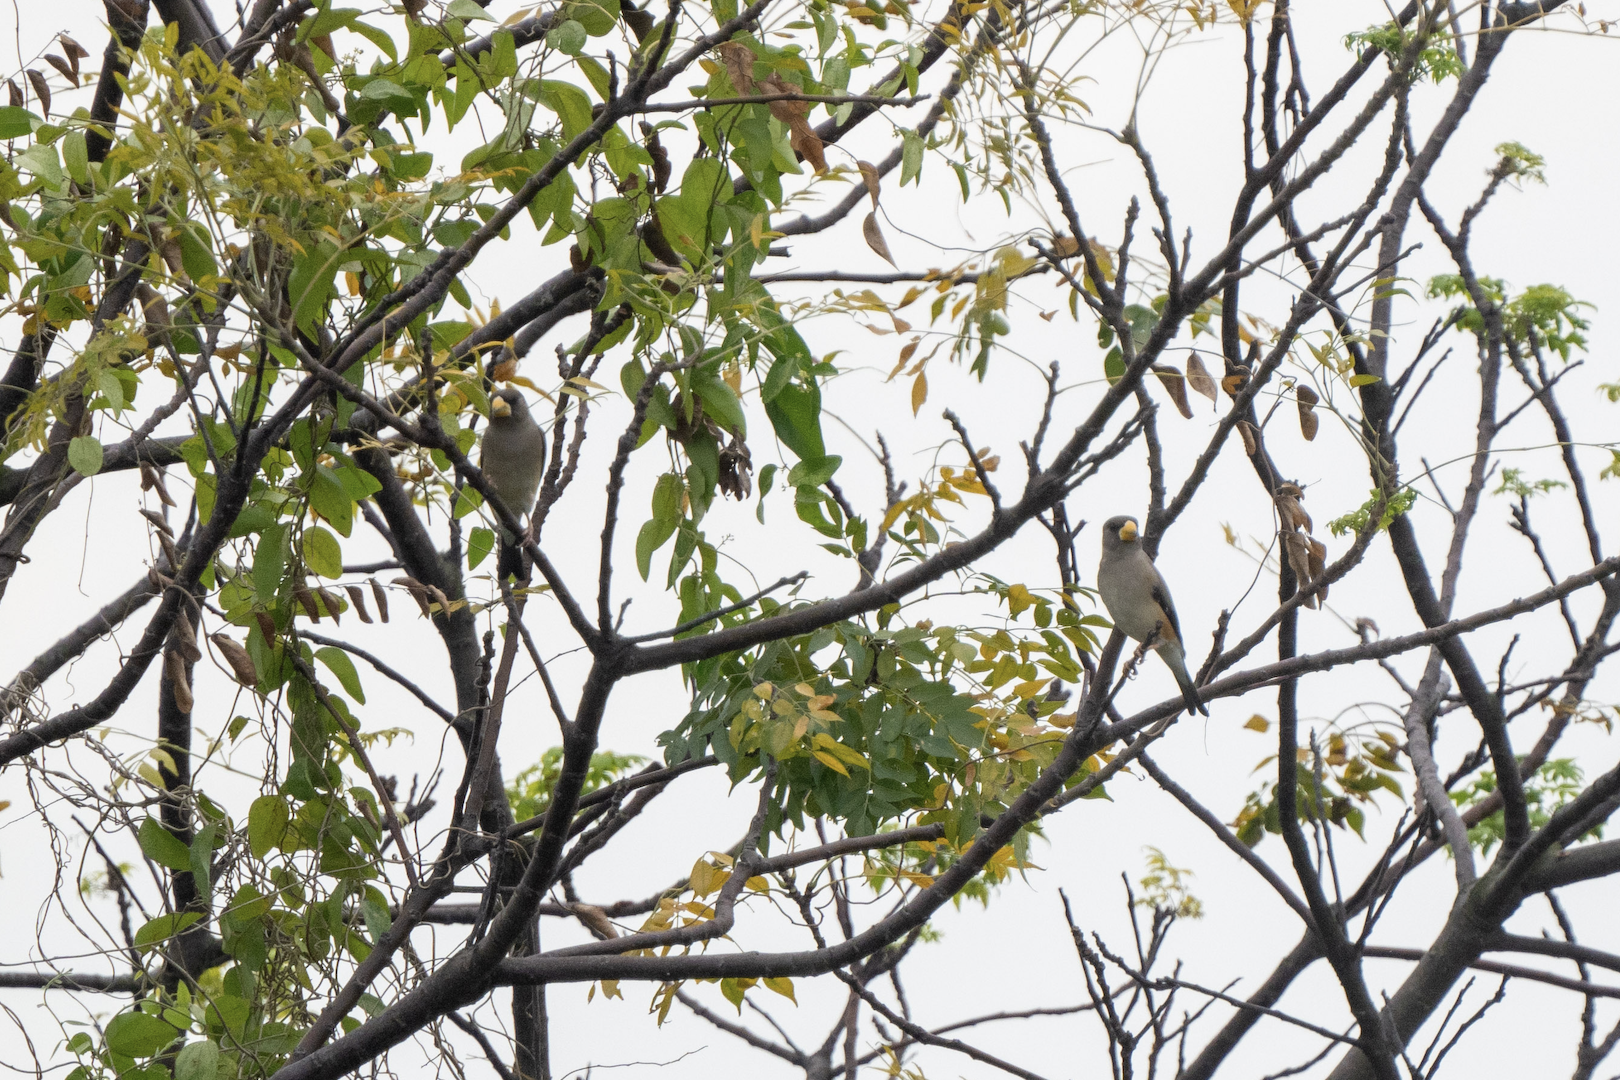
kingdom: Animalia
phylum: Chordata
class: Aves
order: Passeriformes
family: Fringillidae
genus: Eophona
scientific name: Eophona migratoria
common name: Yellow-billed grosbeak
